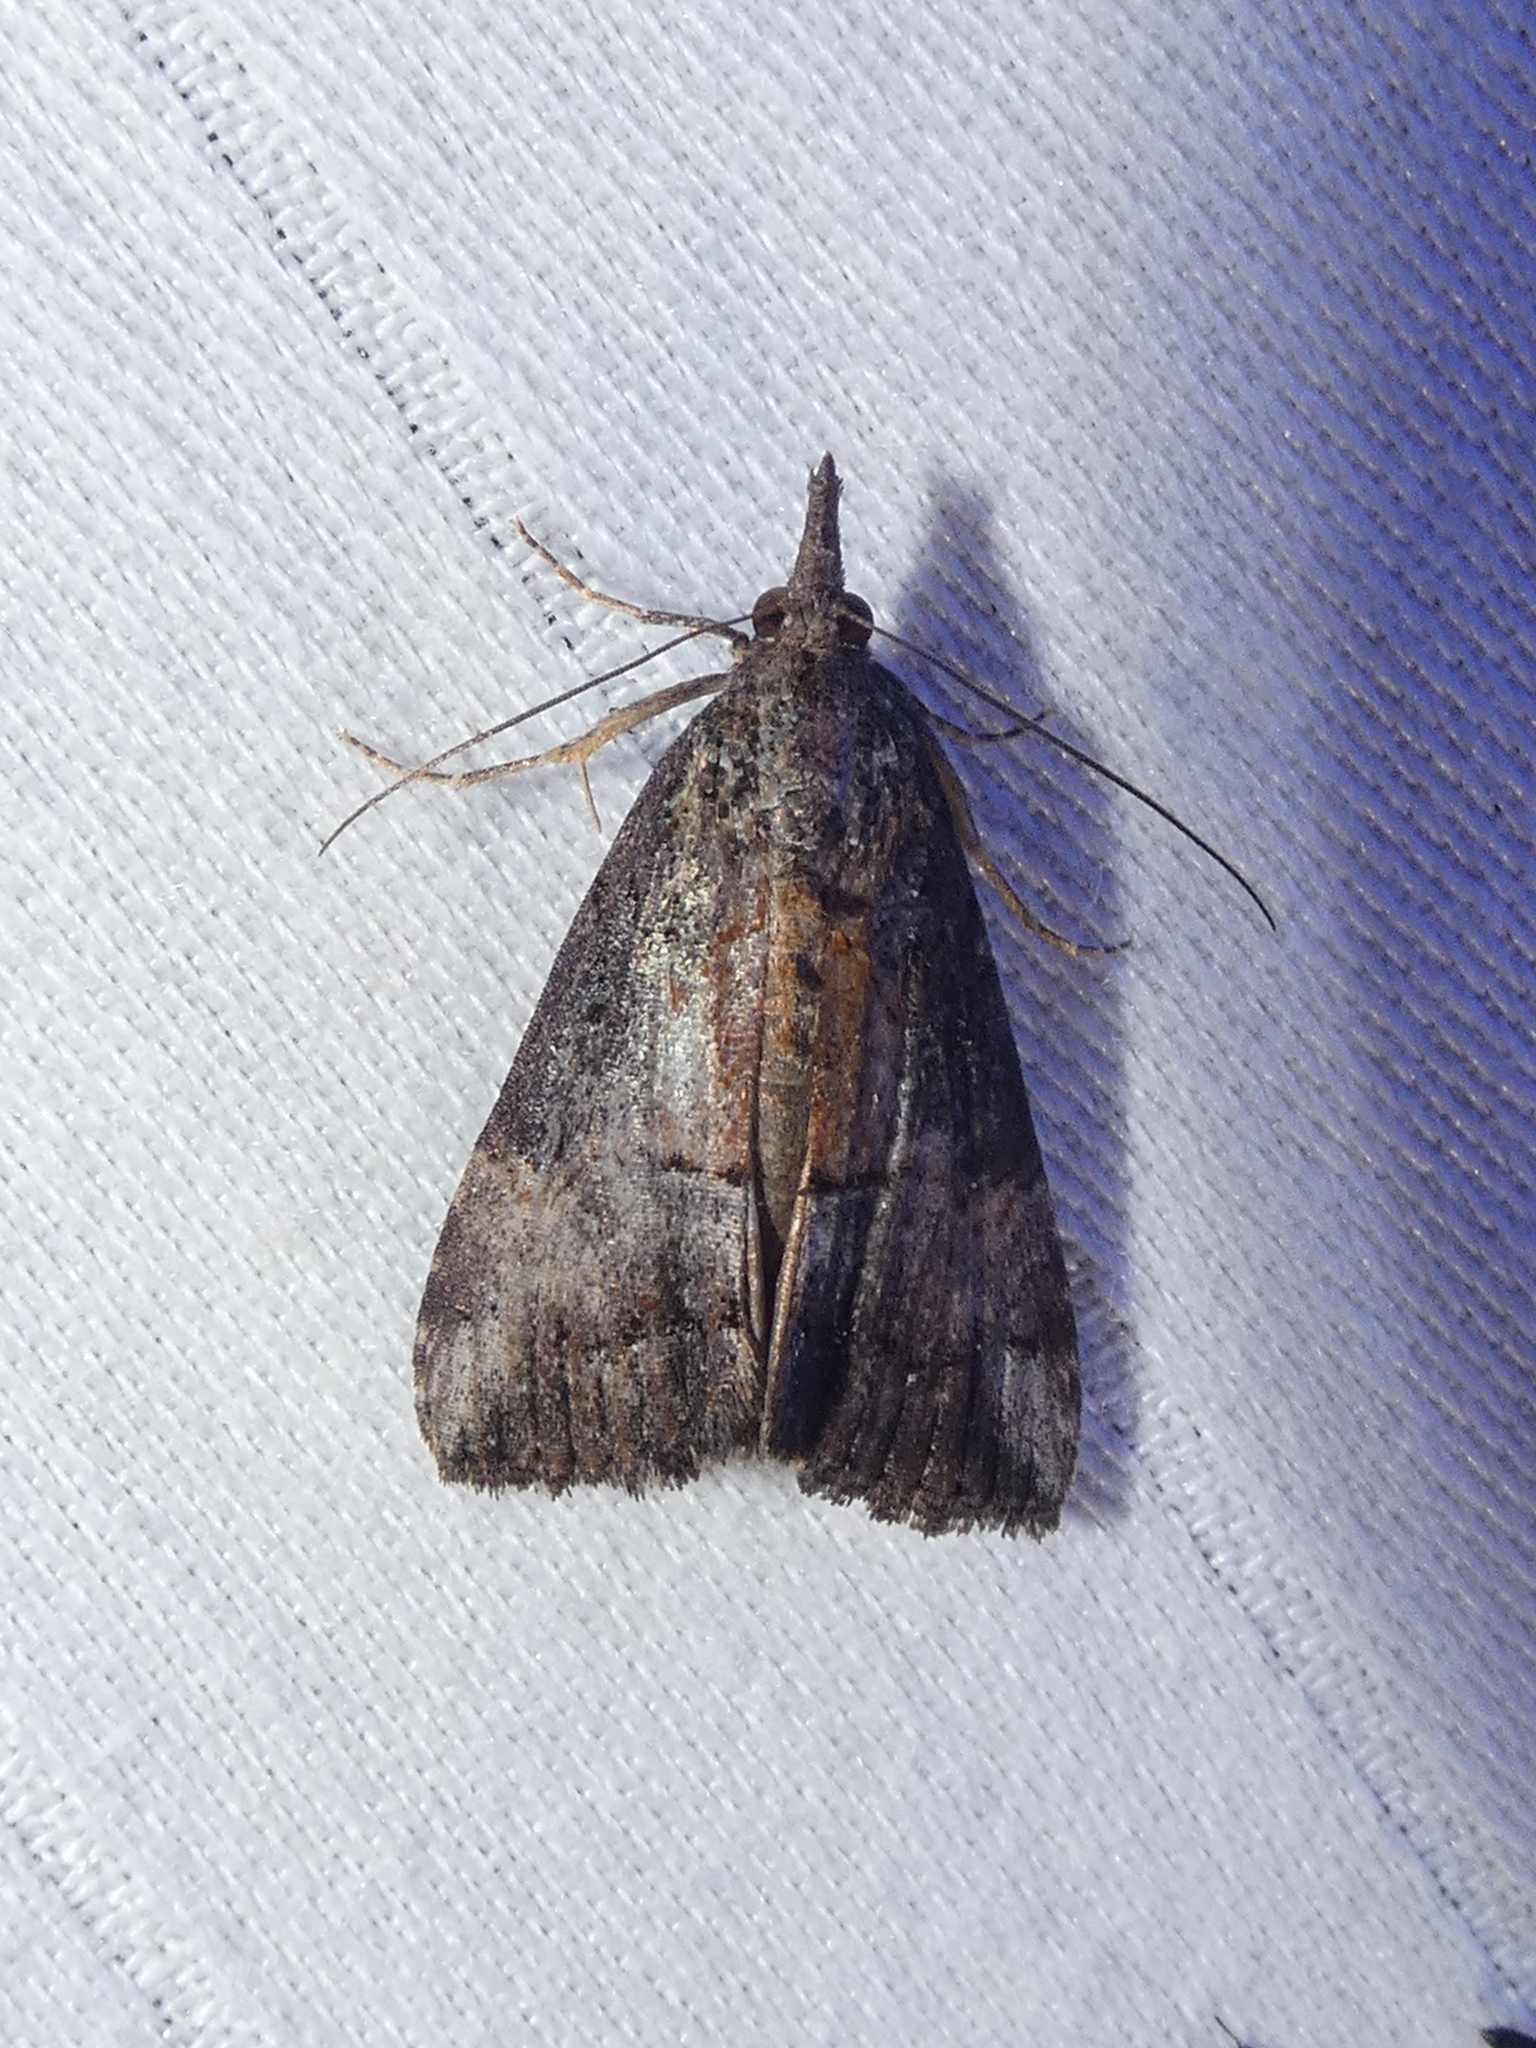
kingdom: Animalia
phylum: Arthropoda
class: Insecta
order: Lepidoptera
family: Erebidae
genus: Hypena
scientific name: Hypena scabra
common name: Green cloverworm
